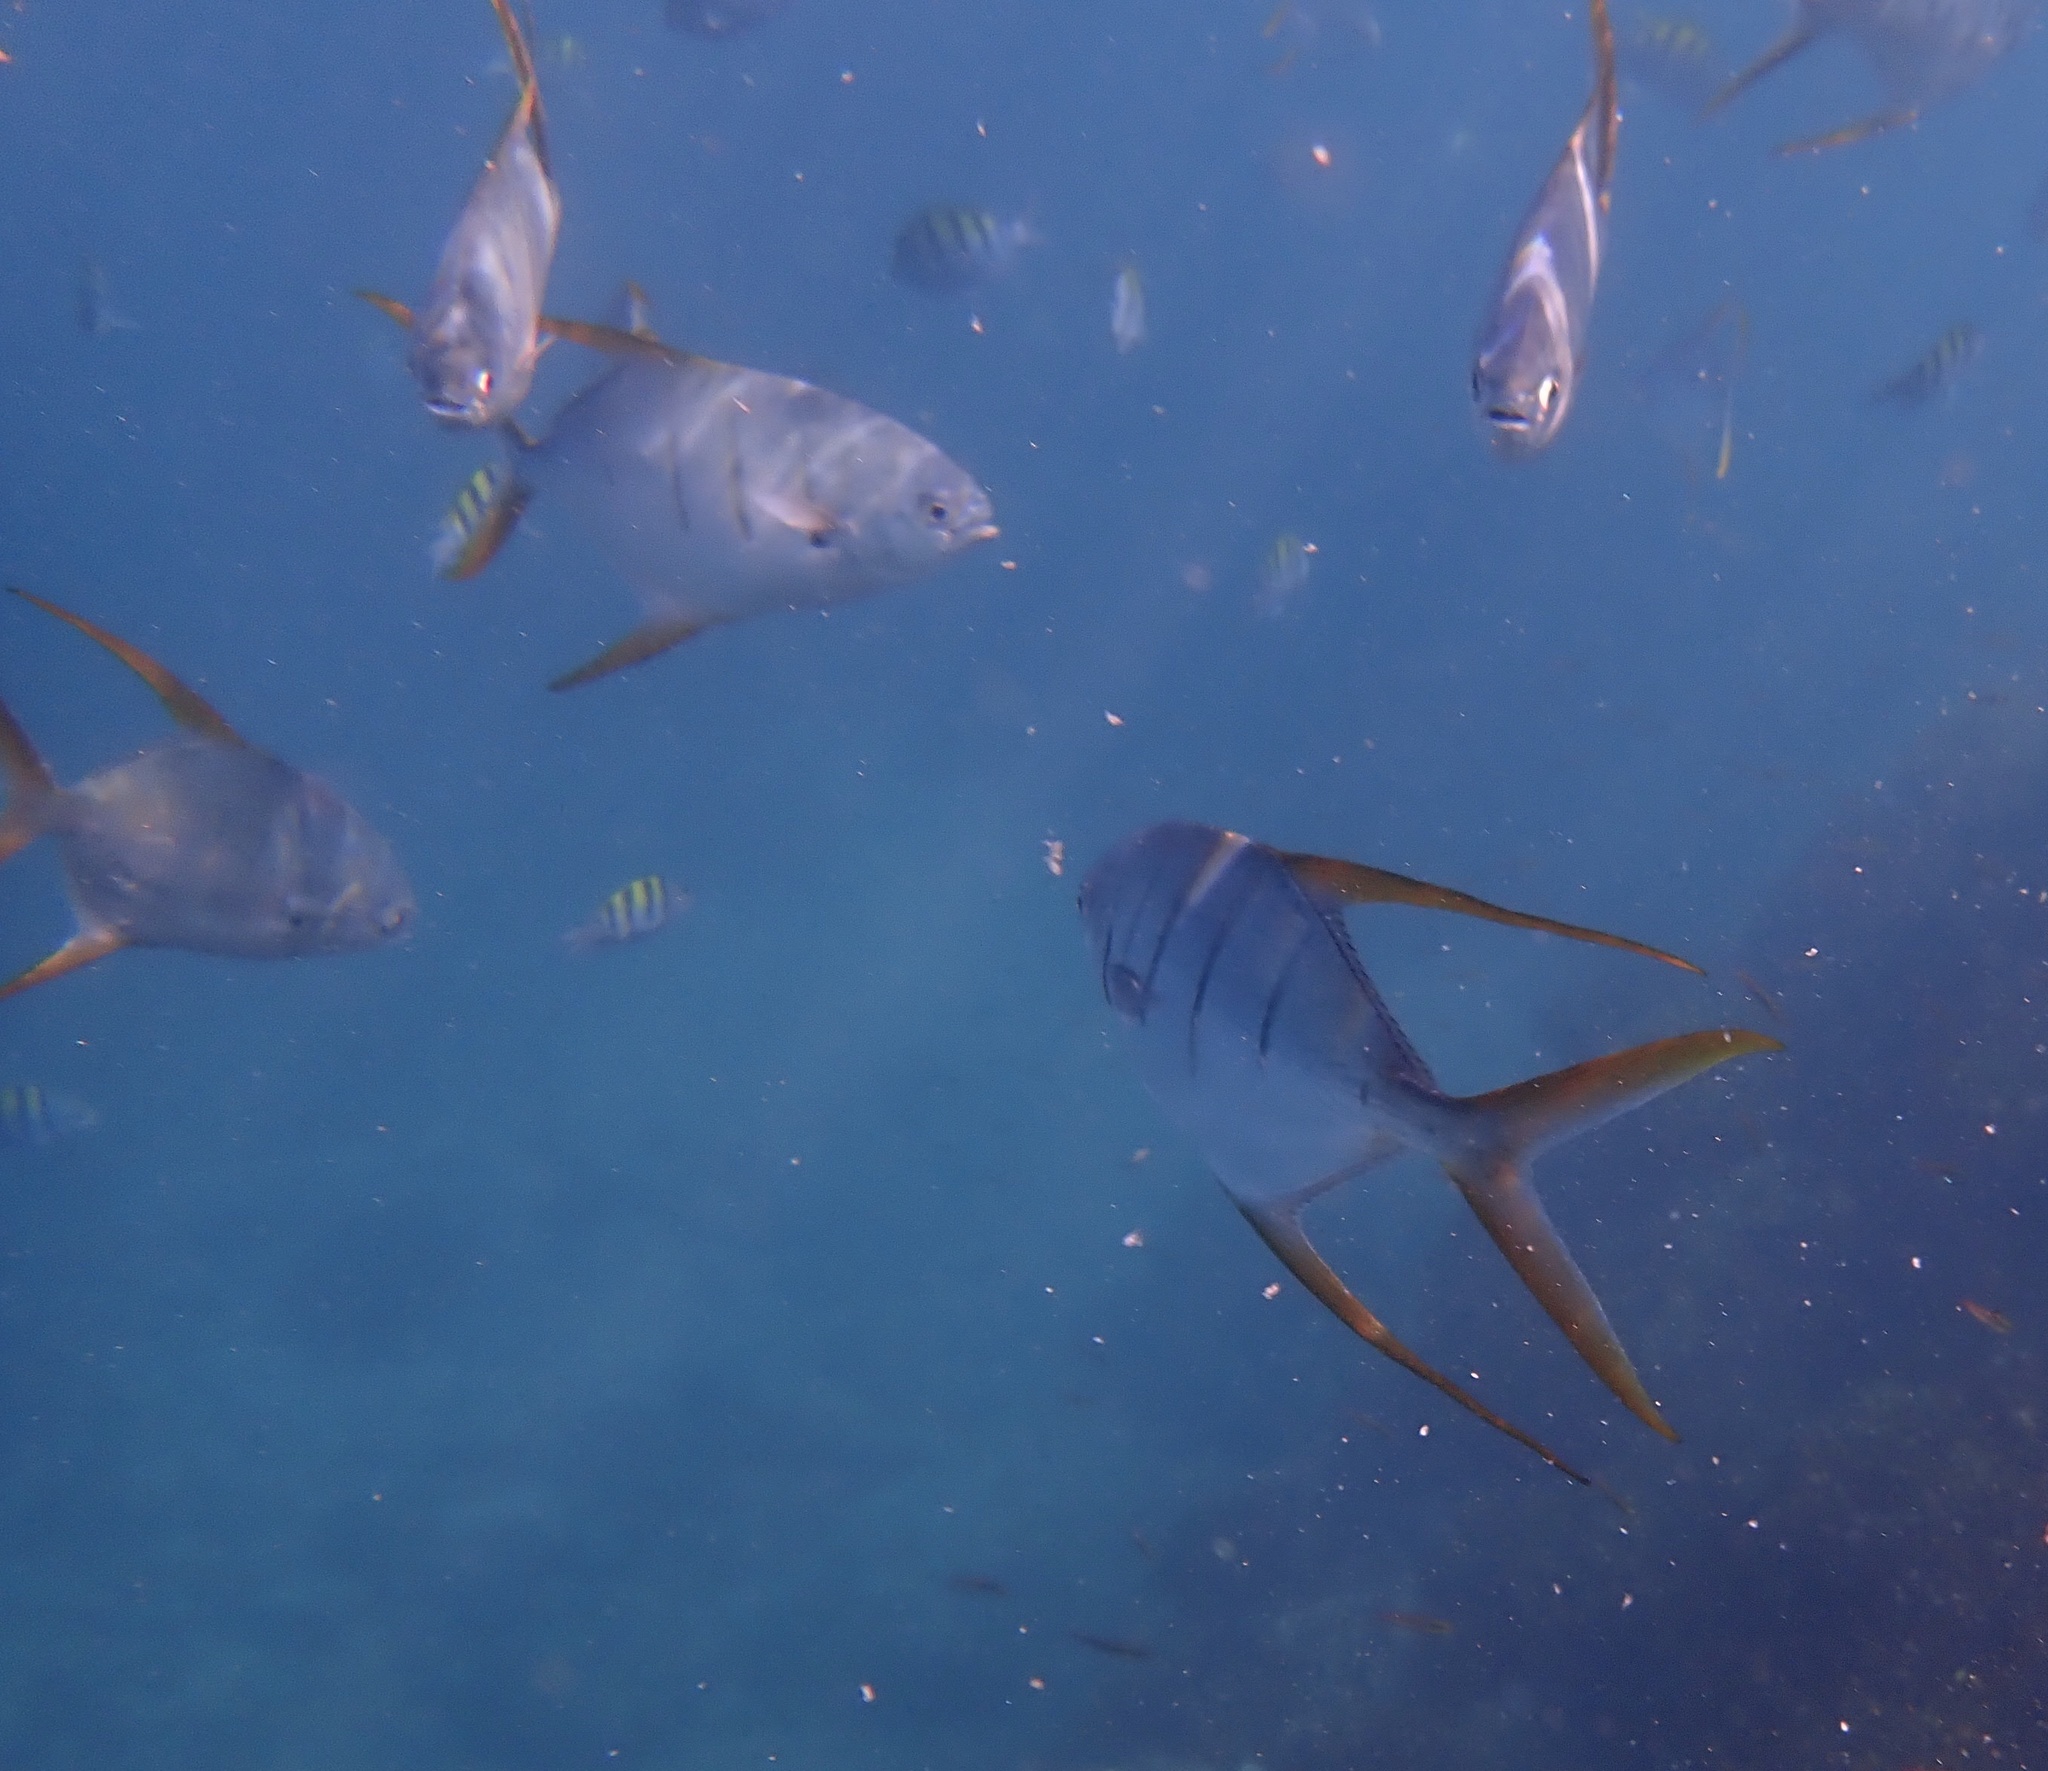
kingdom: Animalia
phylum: Chordata
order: Perciformes
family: Carangidae
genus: Trachinotus
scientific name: Trachinotus rhodopus
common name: Gafftopsail pompano
